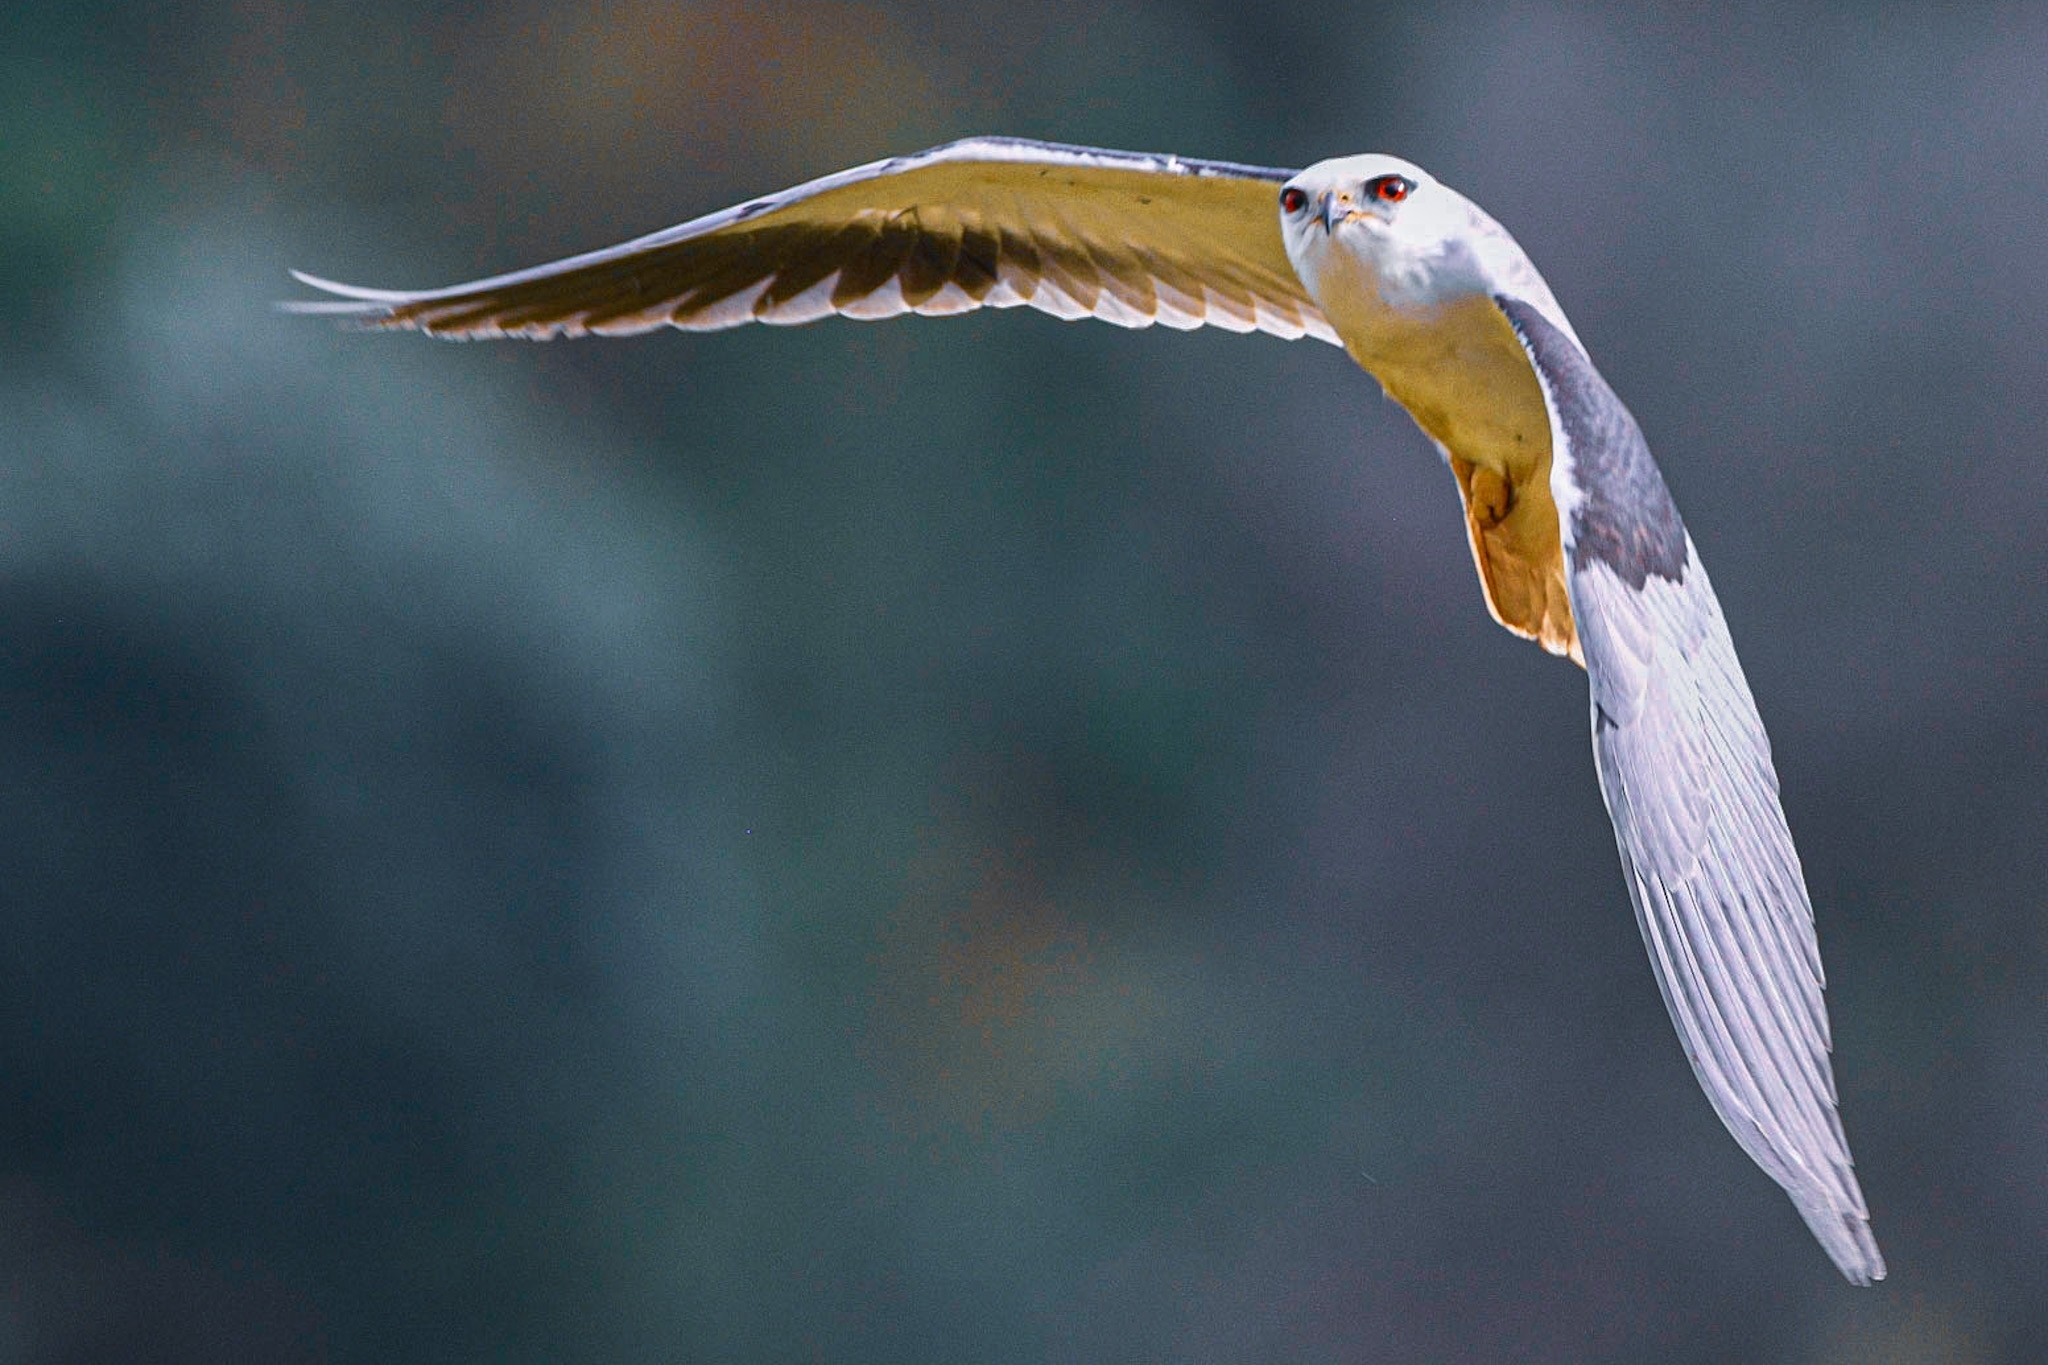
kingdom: Animalia
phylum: Chordata
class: Aves
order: Accipitriformes
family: Accipitridae
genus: Elanus
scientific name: Elanus caeruleus
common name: Black-winged kite
